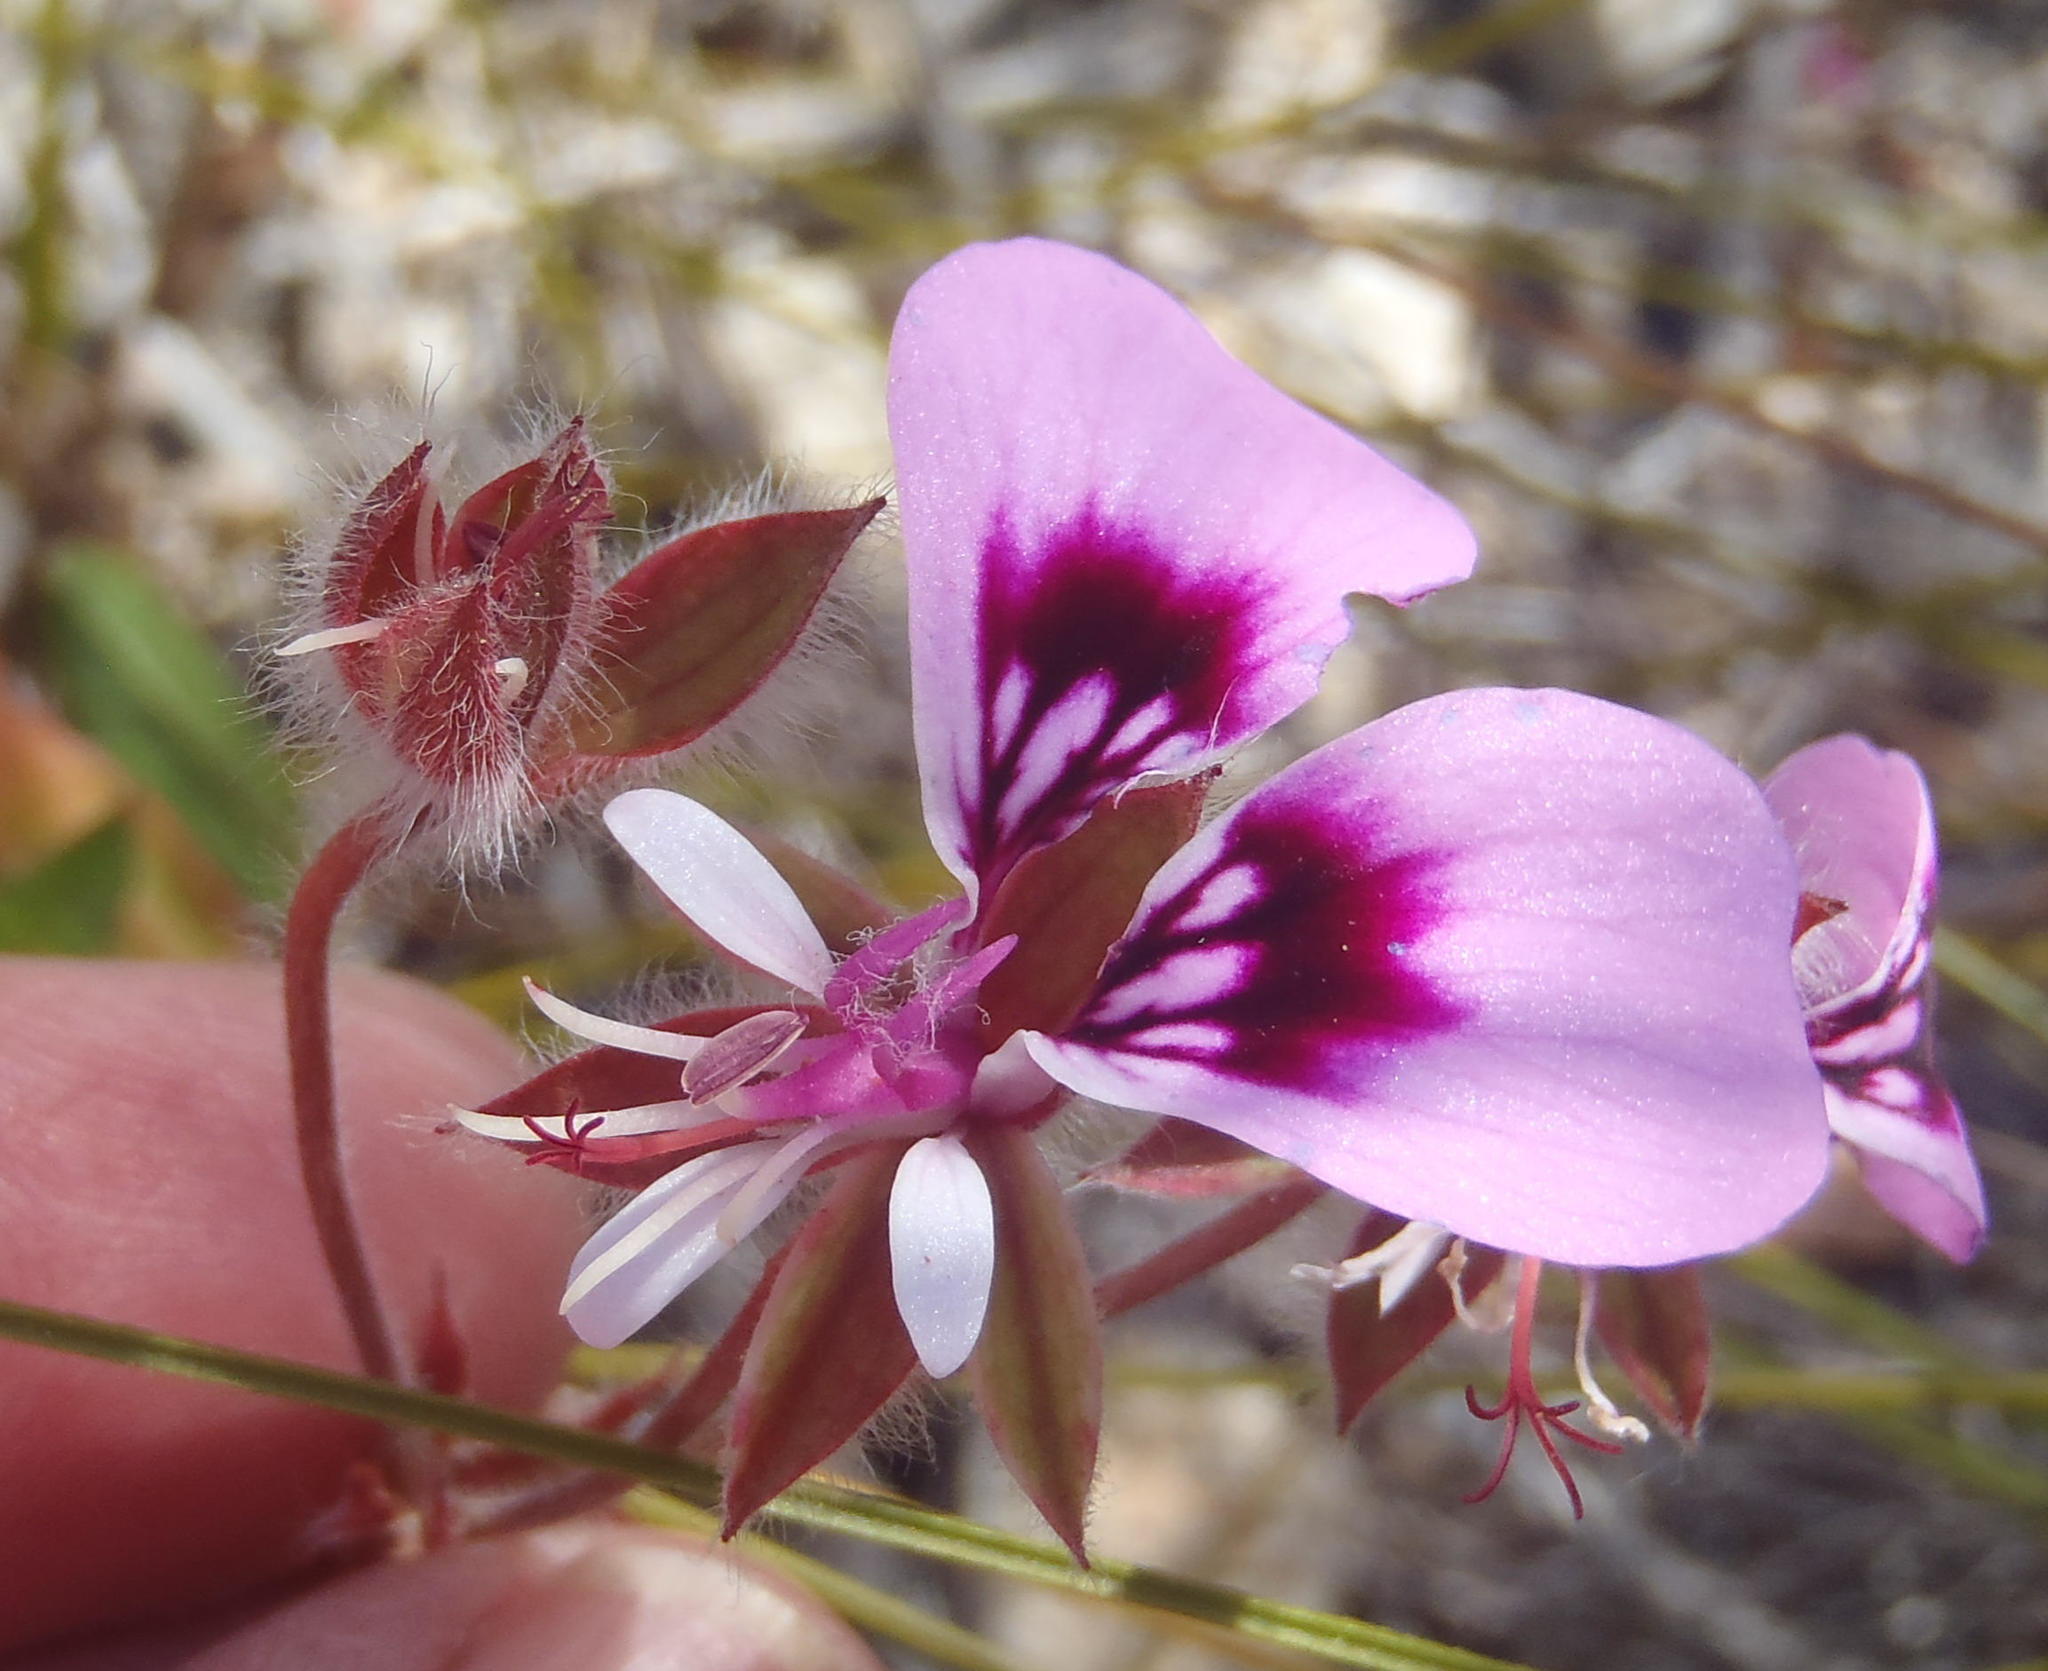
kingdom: Plantae
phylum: Tracheophyta
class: Magnoliopsida
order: Geraniales
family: Geraniaceae
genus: Pelargonium
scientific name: Pelargonium ovale
